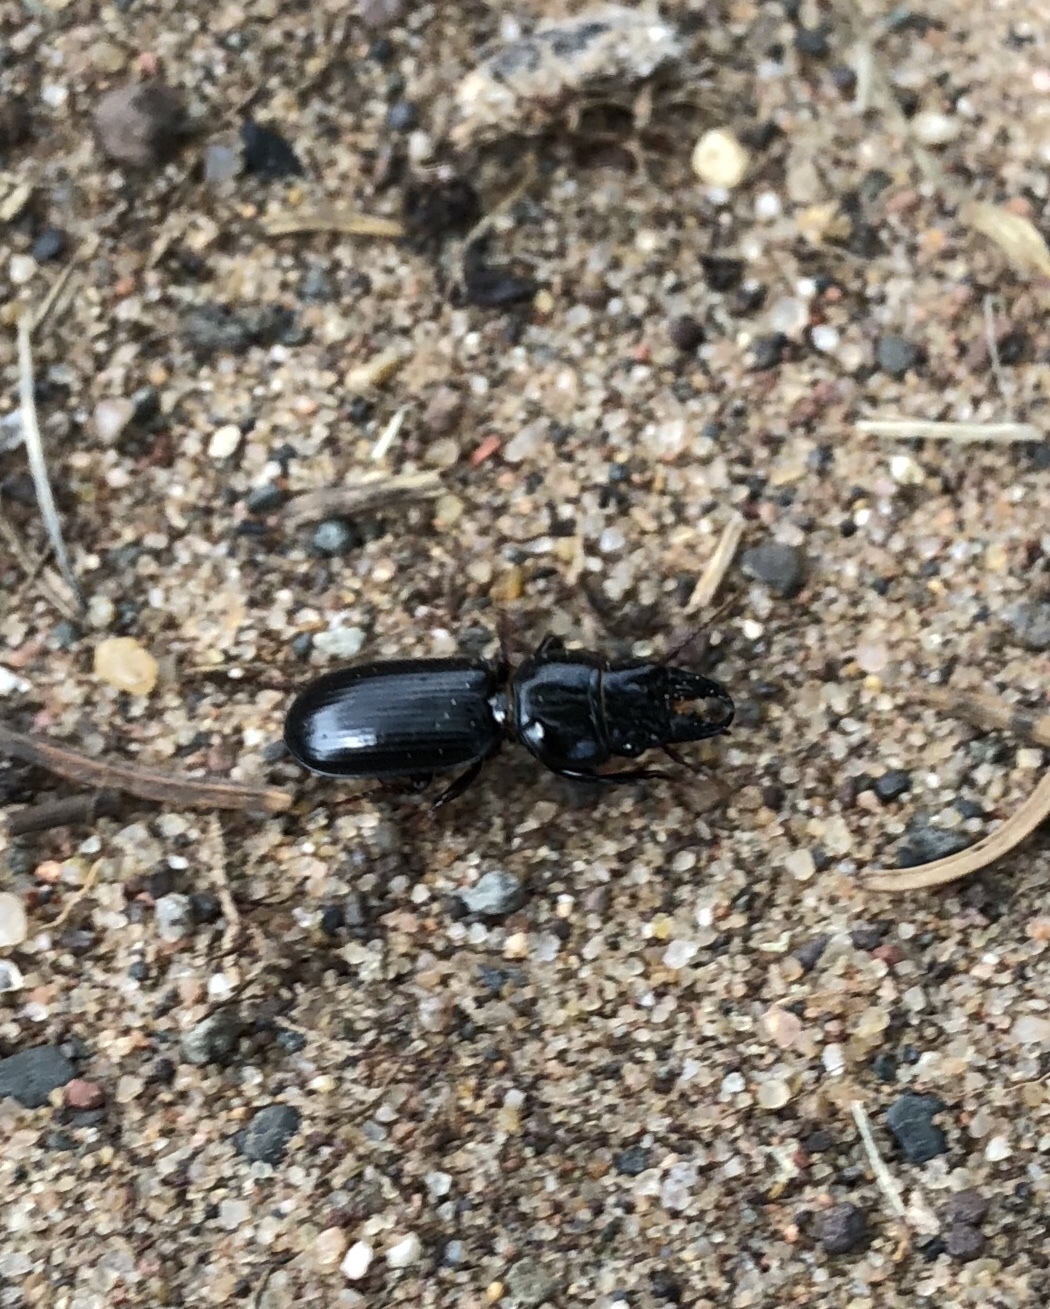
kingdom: Animalia
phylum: Arthropoda
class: Insecta
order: Coleoptera
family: Carabidae
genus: Scarites
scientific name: Scarites subterraneus
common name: Big-headed ground beetle
